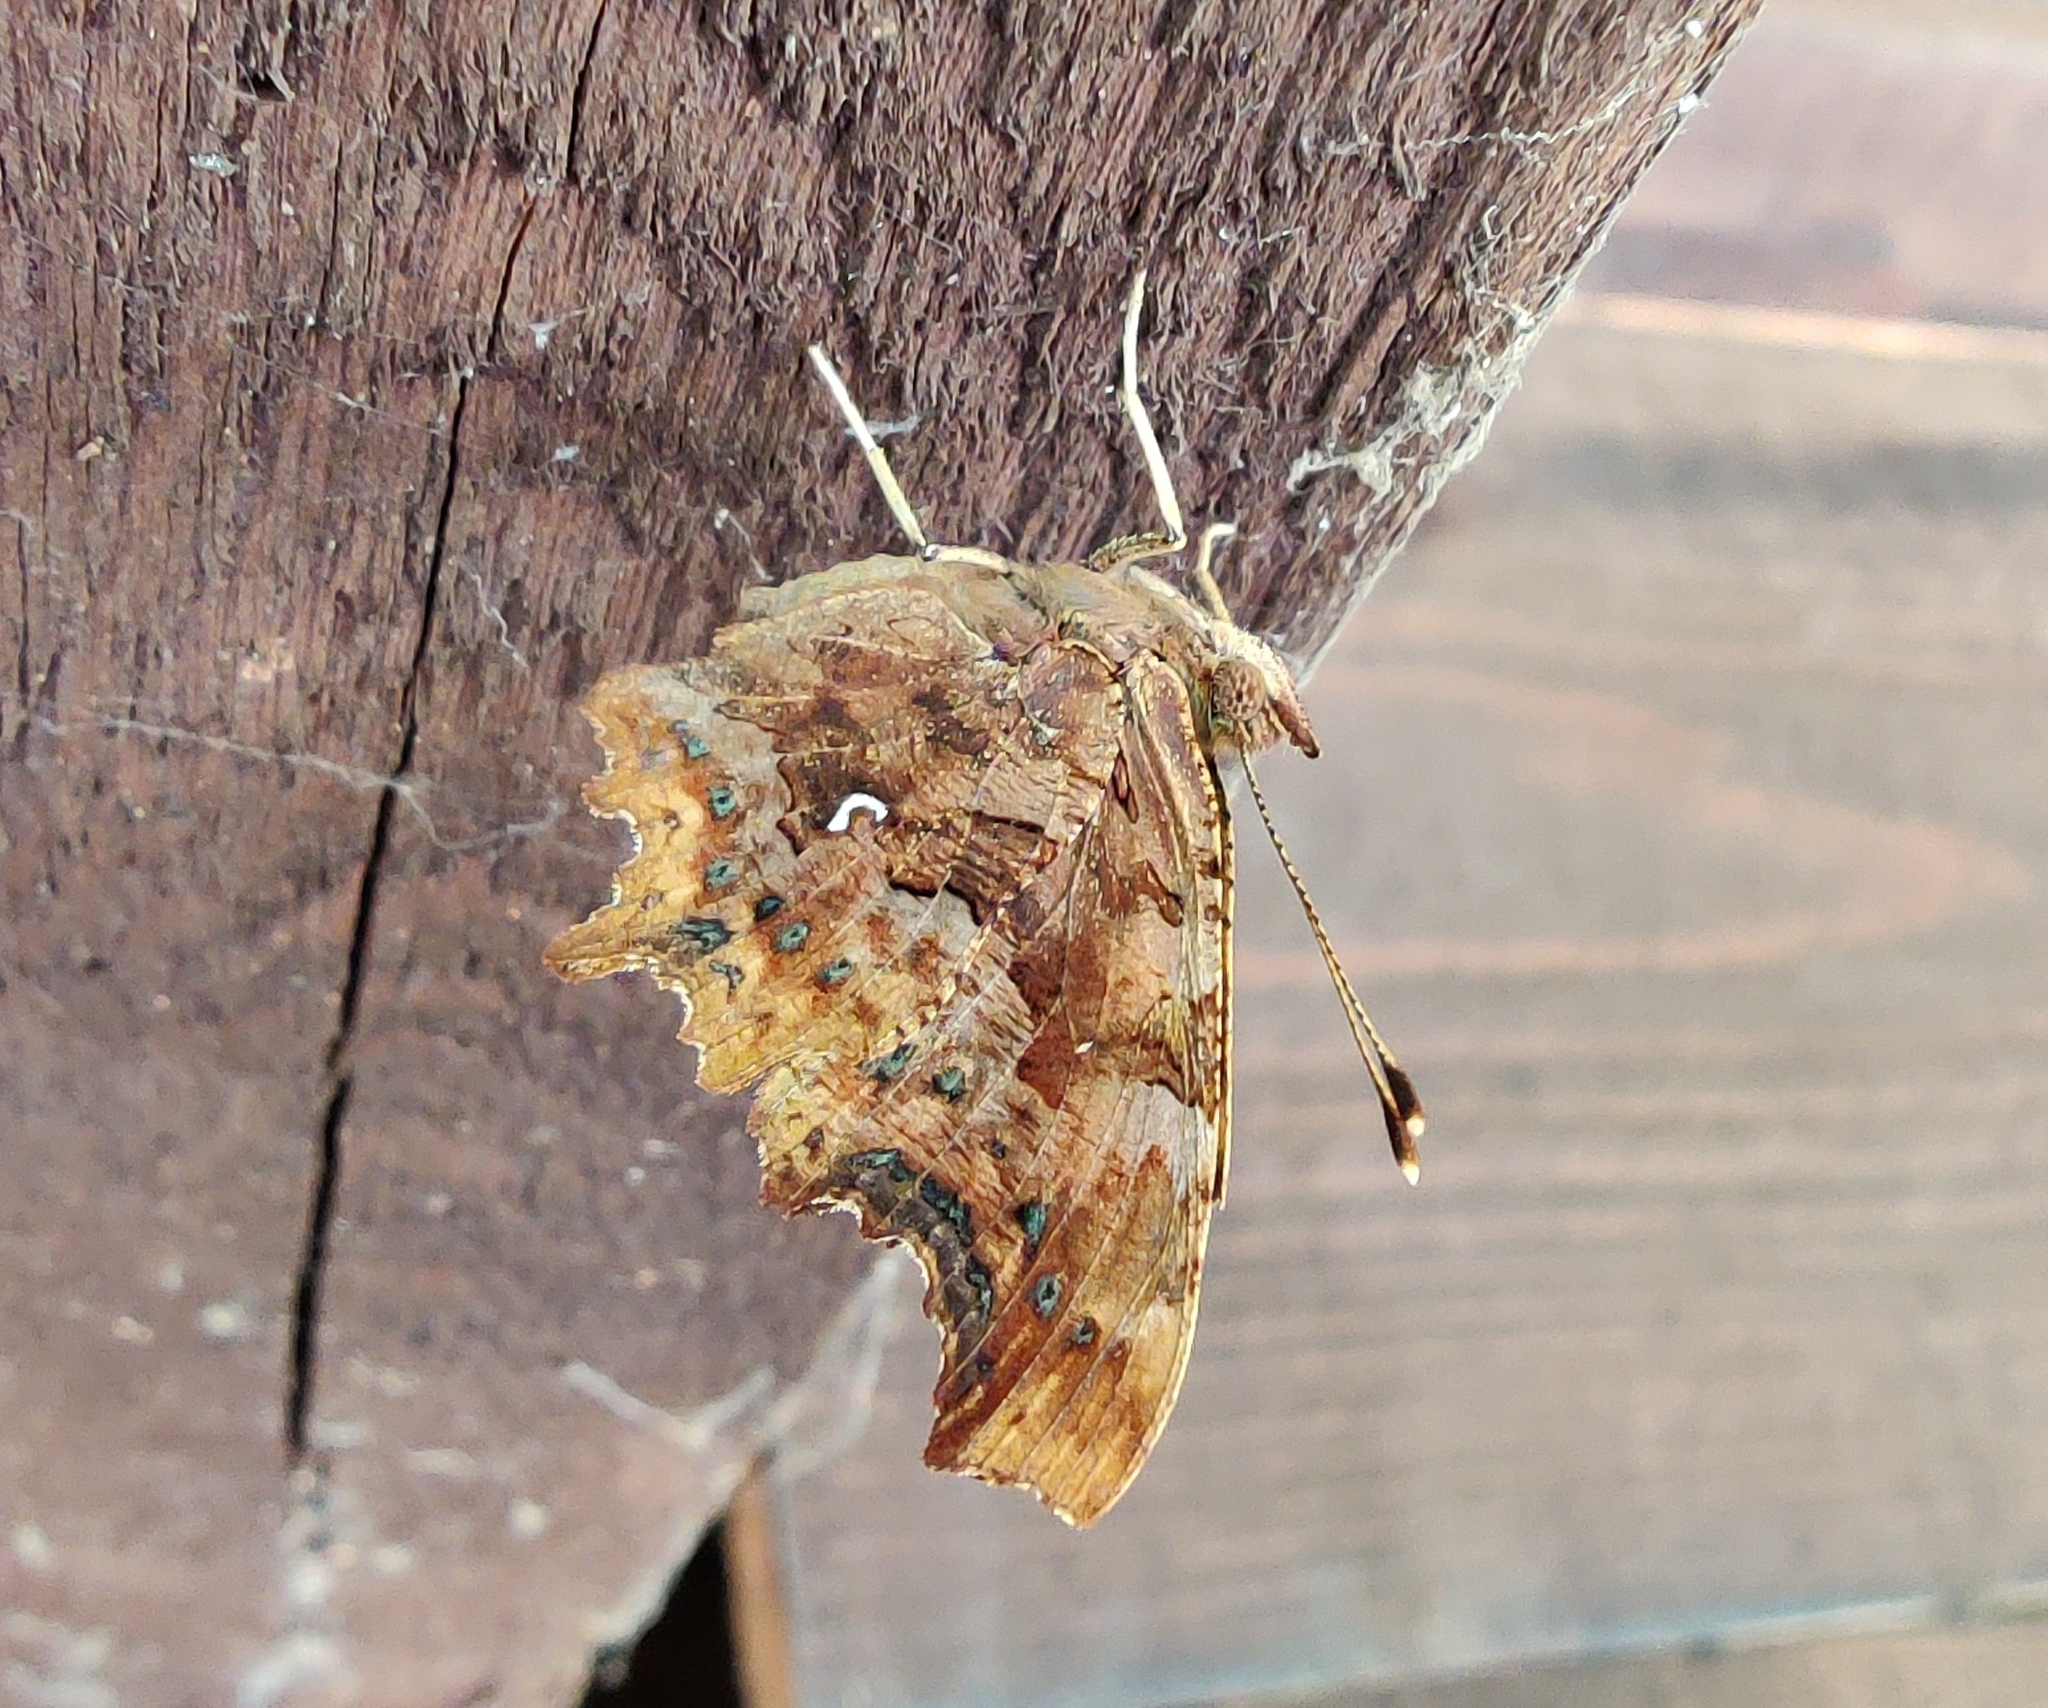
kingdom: Animalia
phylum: Arthropoda
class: Insecta
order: Lepidoptera
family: Nymphalidae
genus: Polygonia
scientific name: Polygonia c-album
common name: Comma
